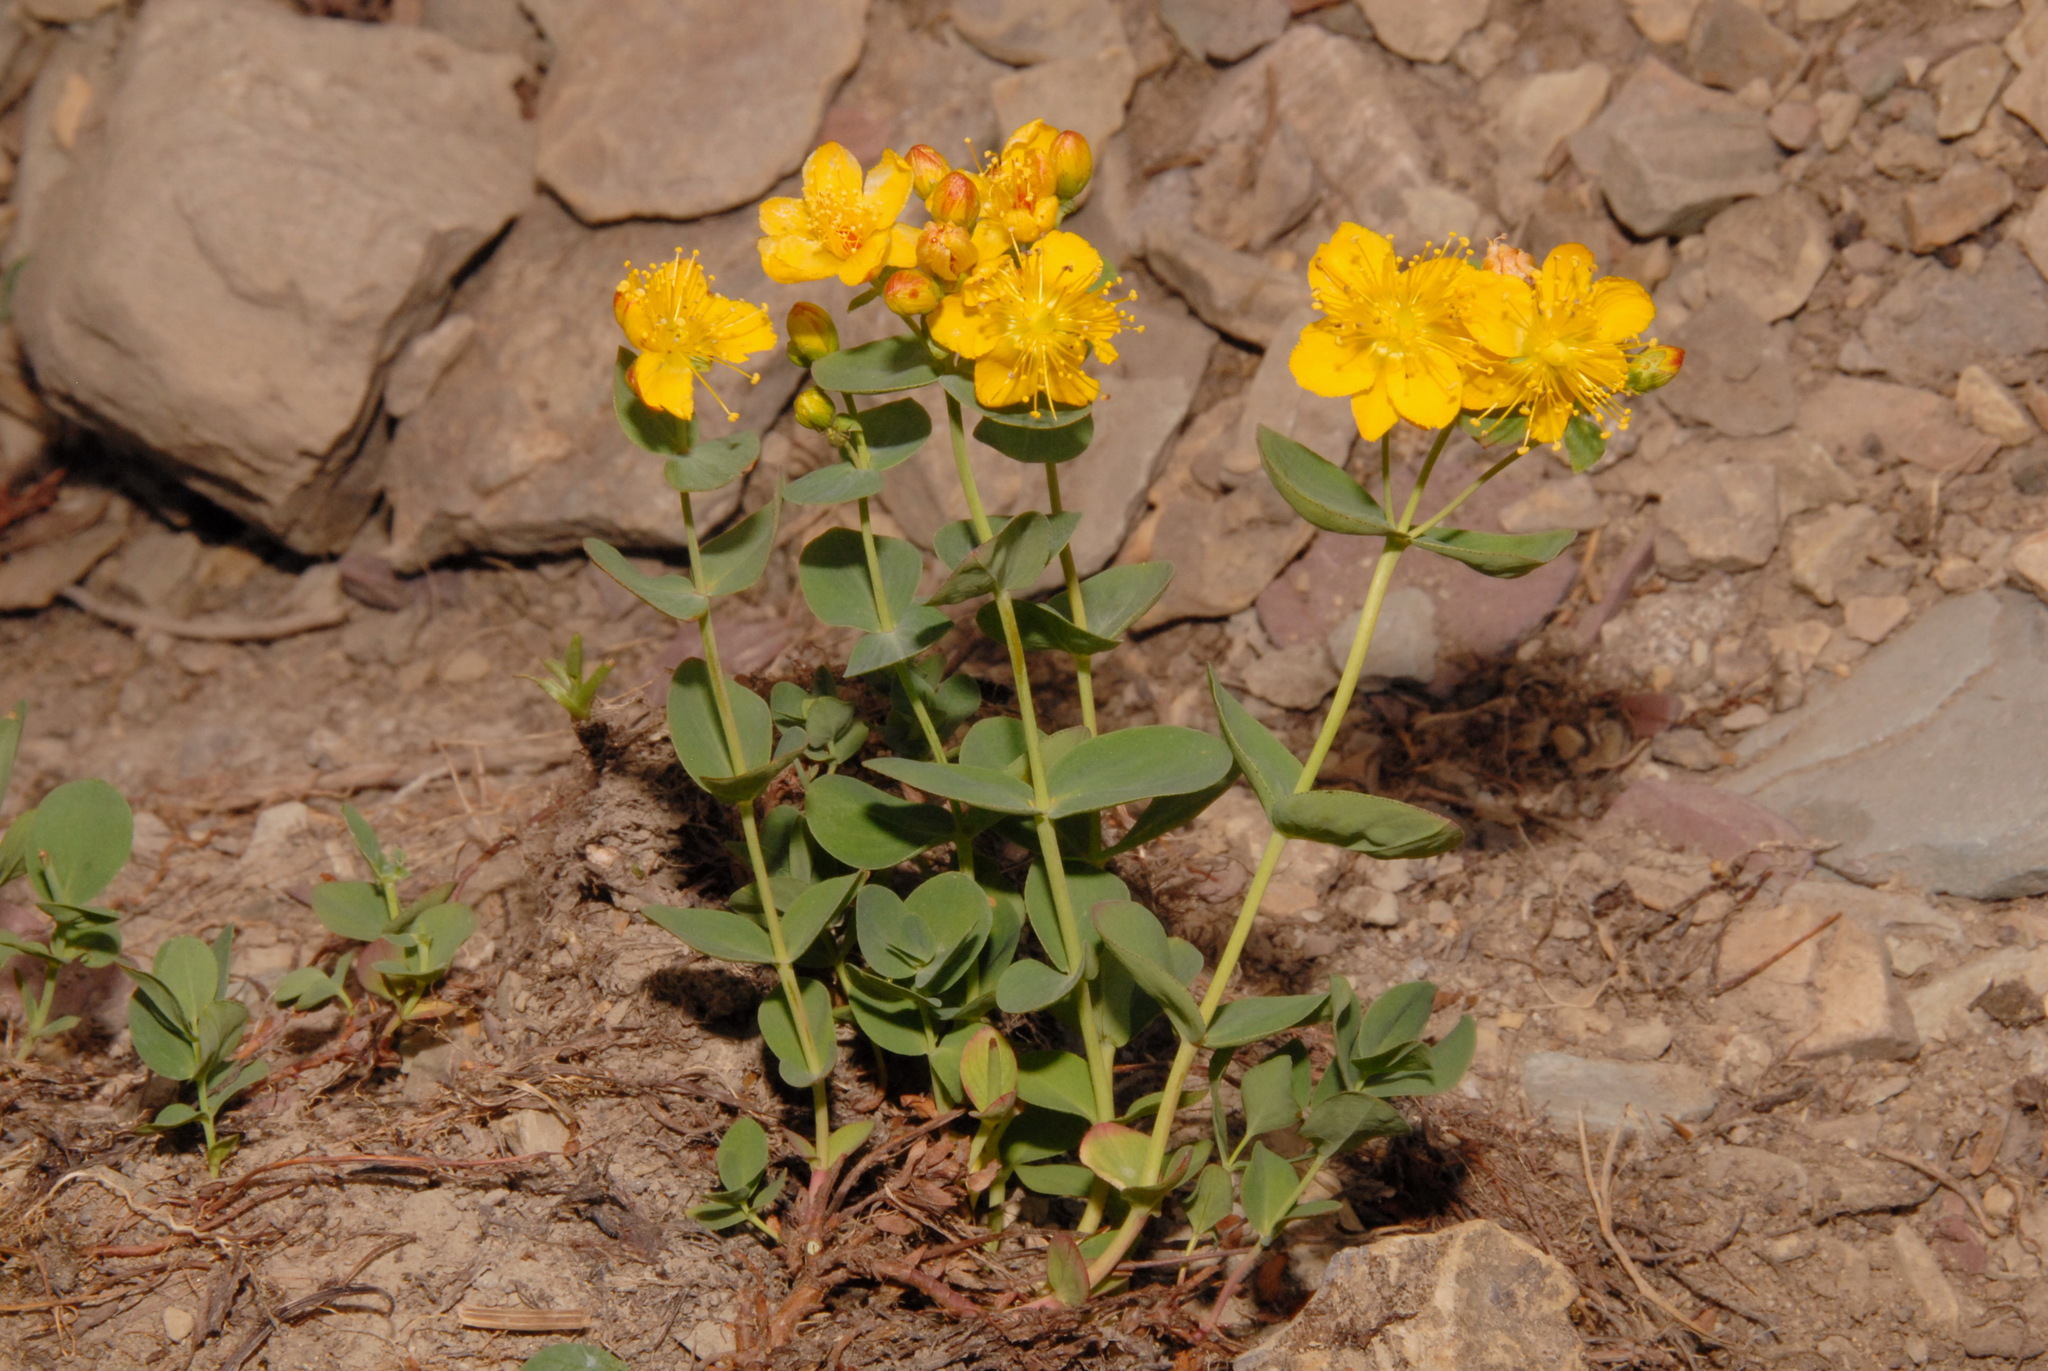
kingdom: Plantae
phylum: Tracheophyta
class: Magnoliopsida
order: Malpighiales
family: Hypericaceae
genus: Hypericum
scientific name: Hypericum scouleri
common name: Scouler's st. john's-wort
